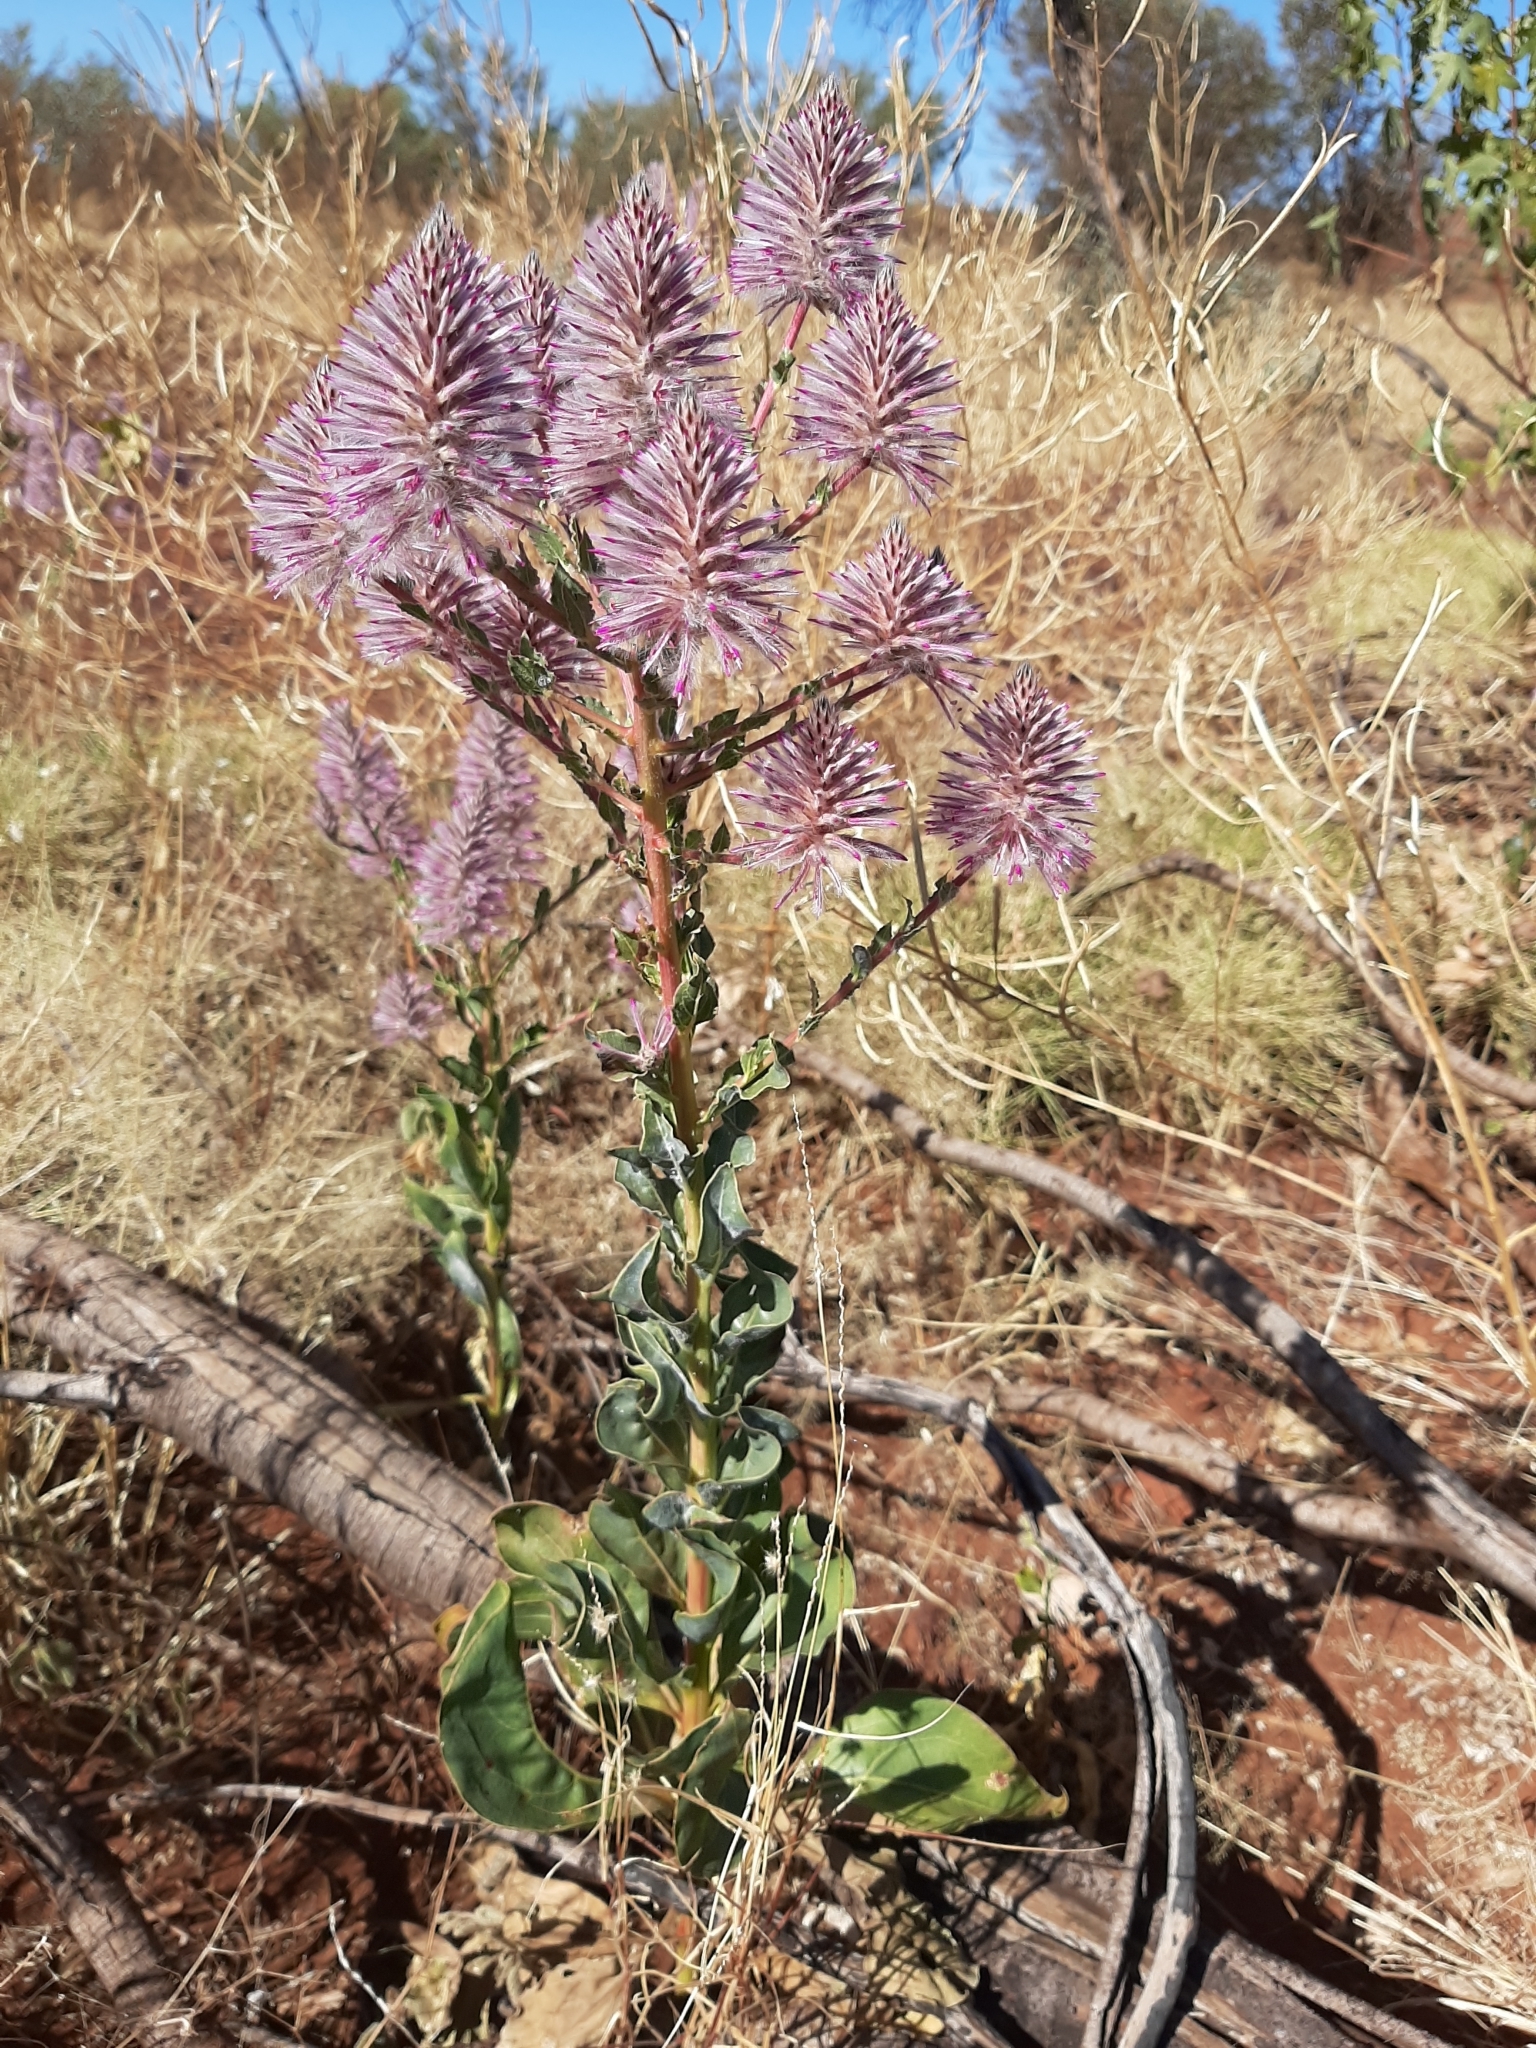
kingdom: Plantae
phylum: Tracheophyta
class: Magnoliopsida
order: Caryophyllales
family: Amaranthaceae
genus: Ptilotus
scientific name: Ptilotus exaltatus
